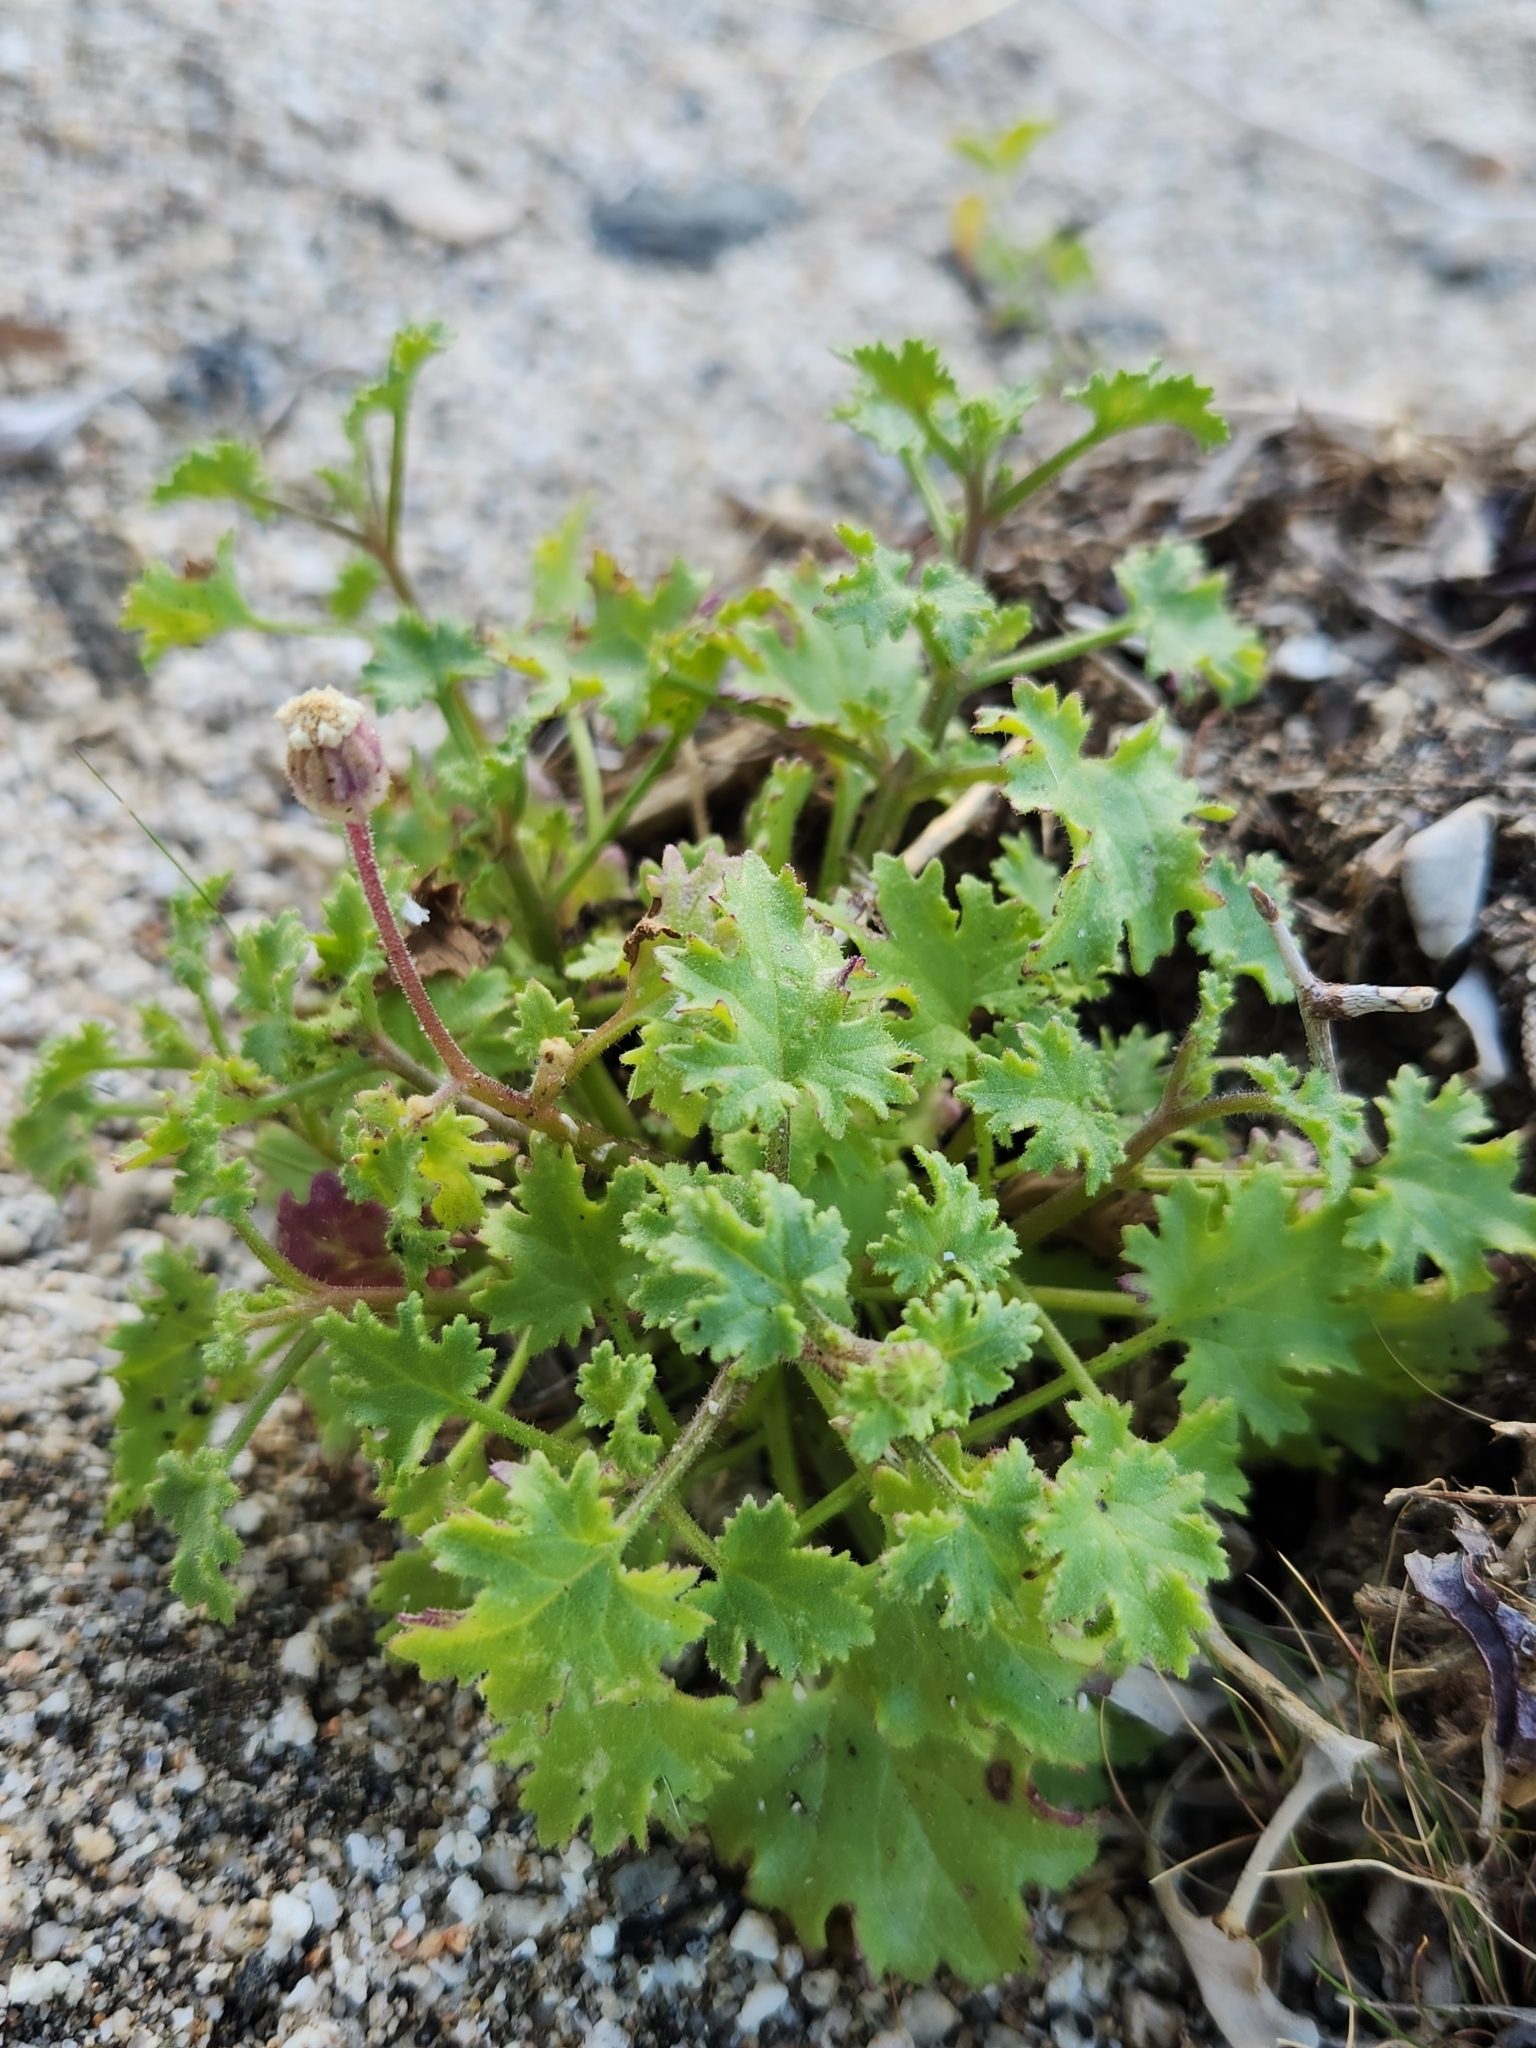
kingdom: Plantae
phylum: Tracheophyta
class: Magnoliopsida
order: Asterales
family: Asteraceae
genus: Laphamia
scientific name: Laphamia emoryi
